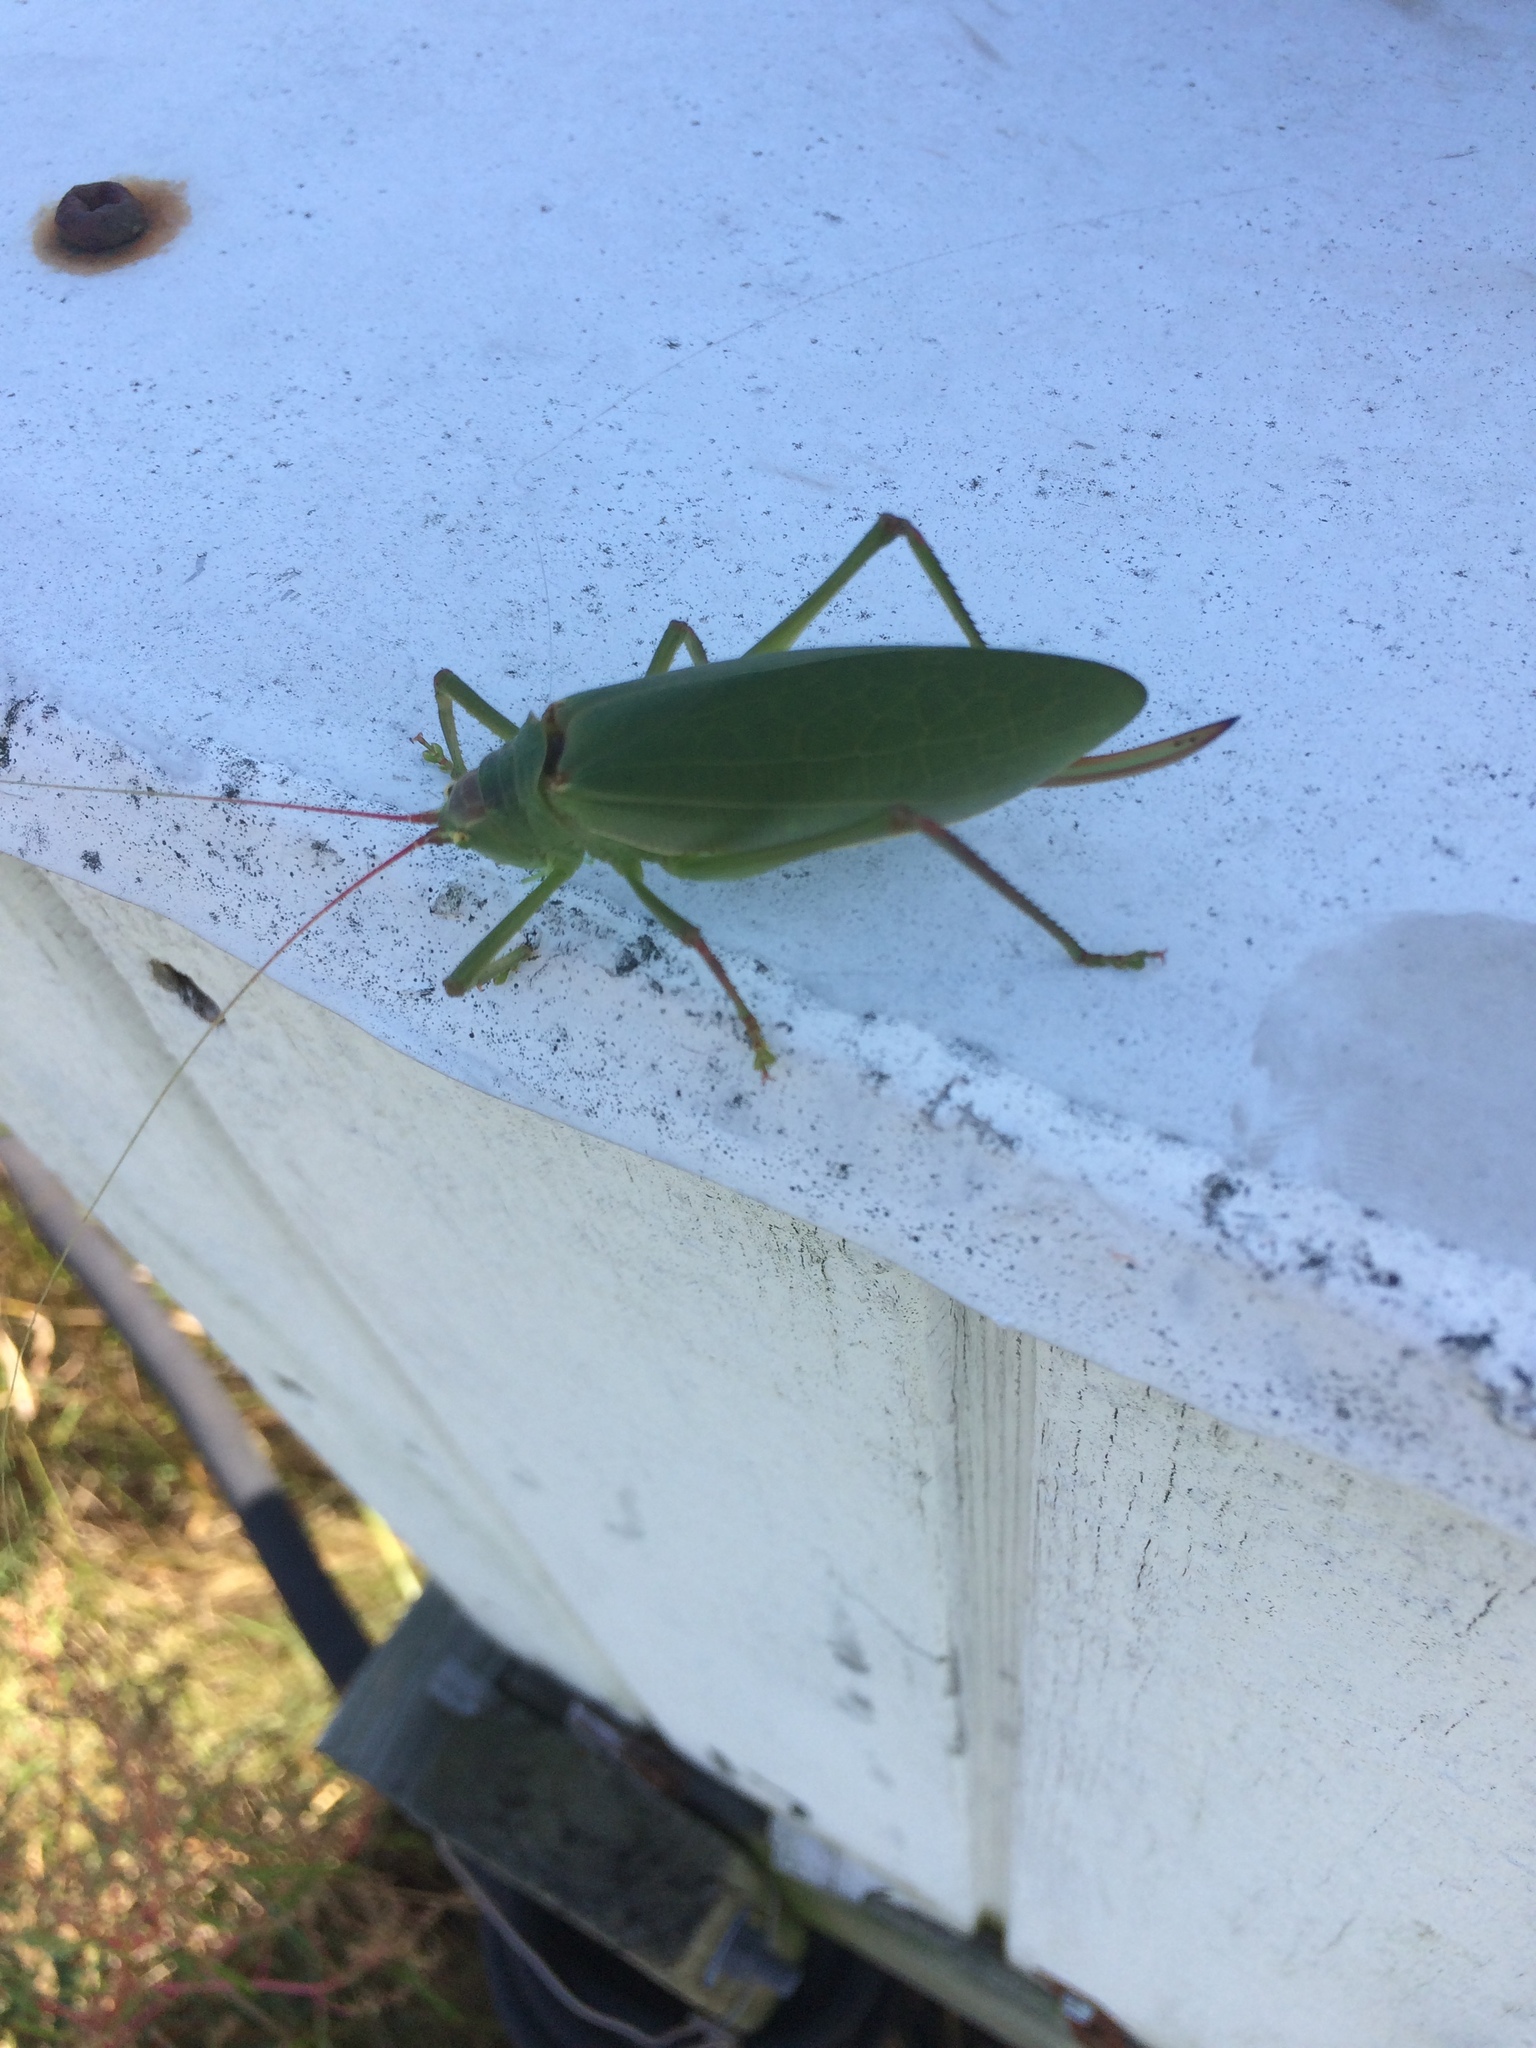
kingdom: Animalia
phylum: Arthropoda
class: Insecta
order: Orthoptera
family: Tettigoniidae
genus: Pterophylla
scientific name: Pterophylla camellifolia
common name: Common true katydid
